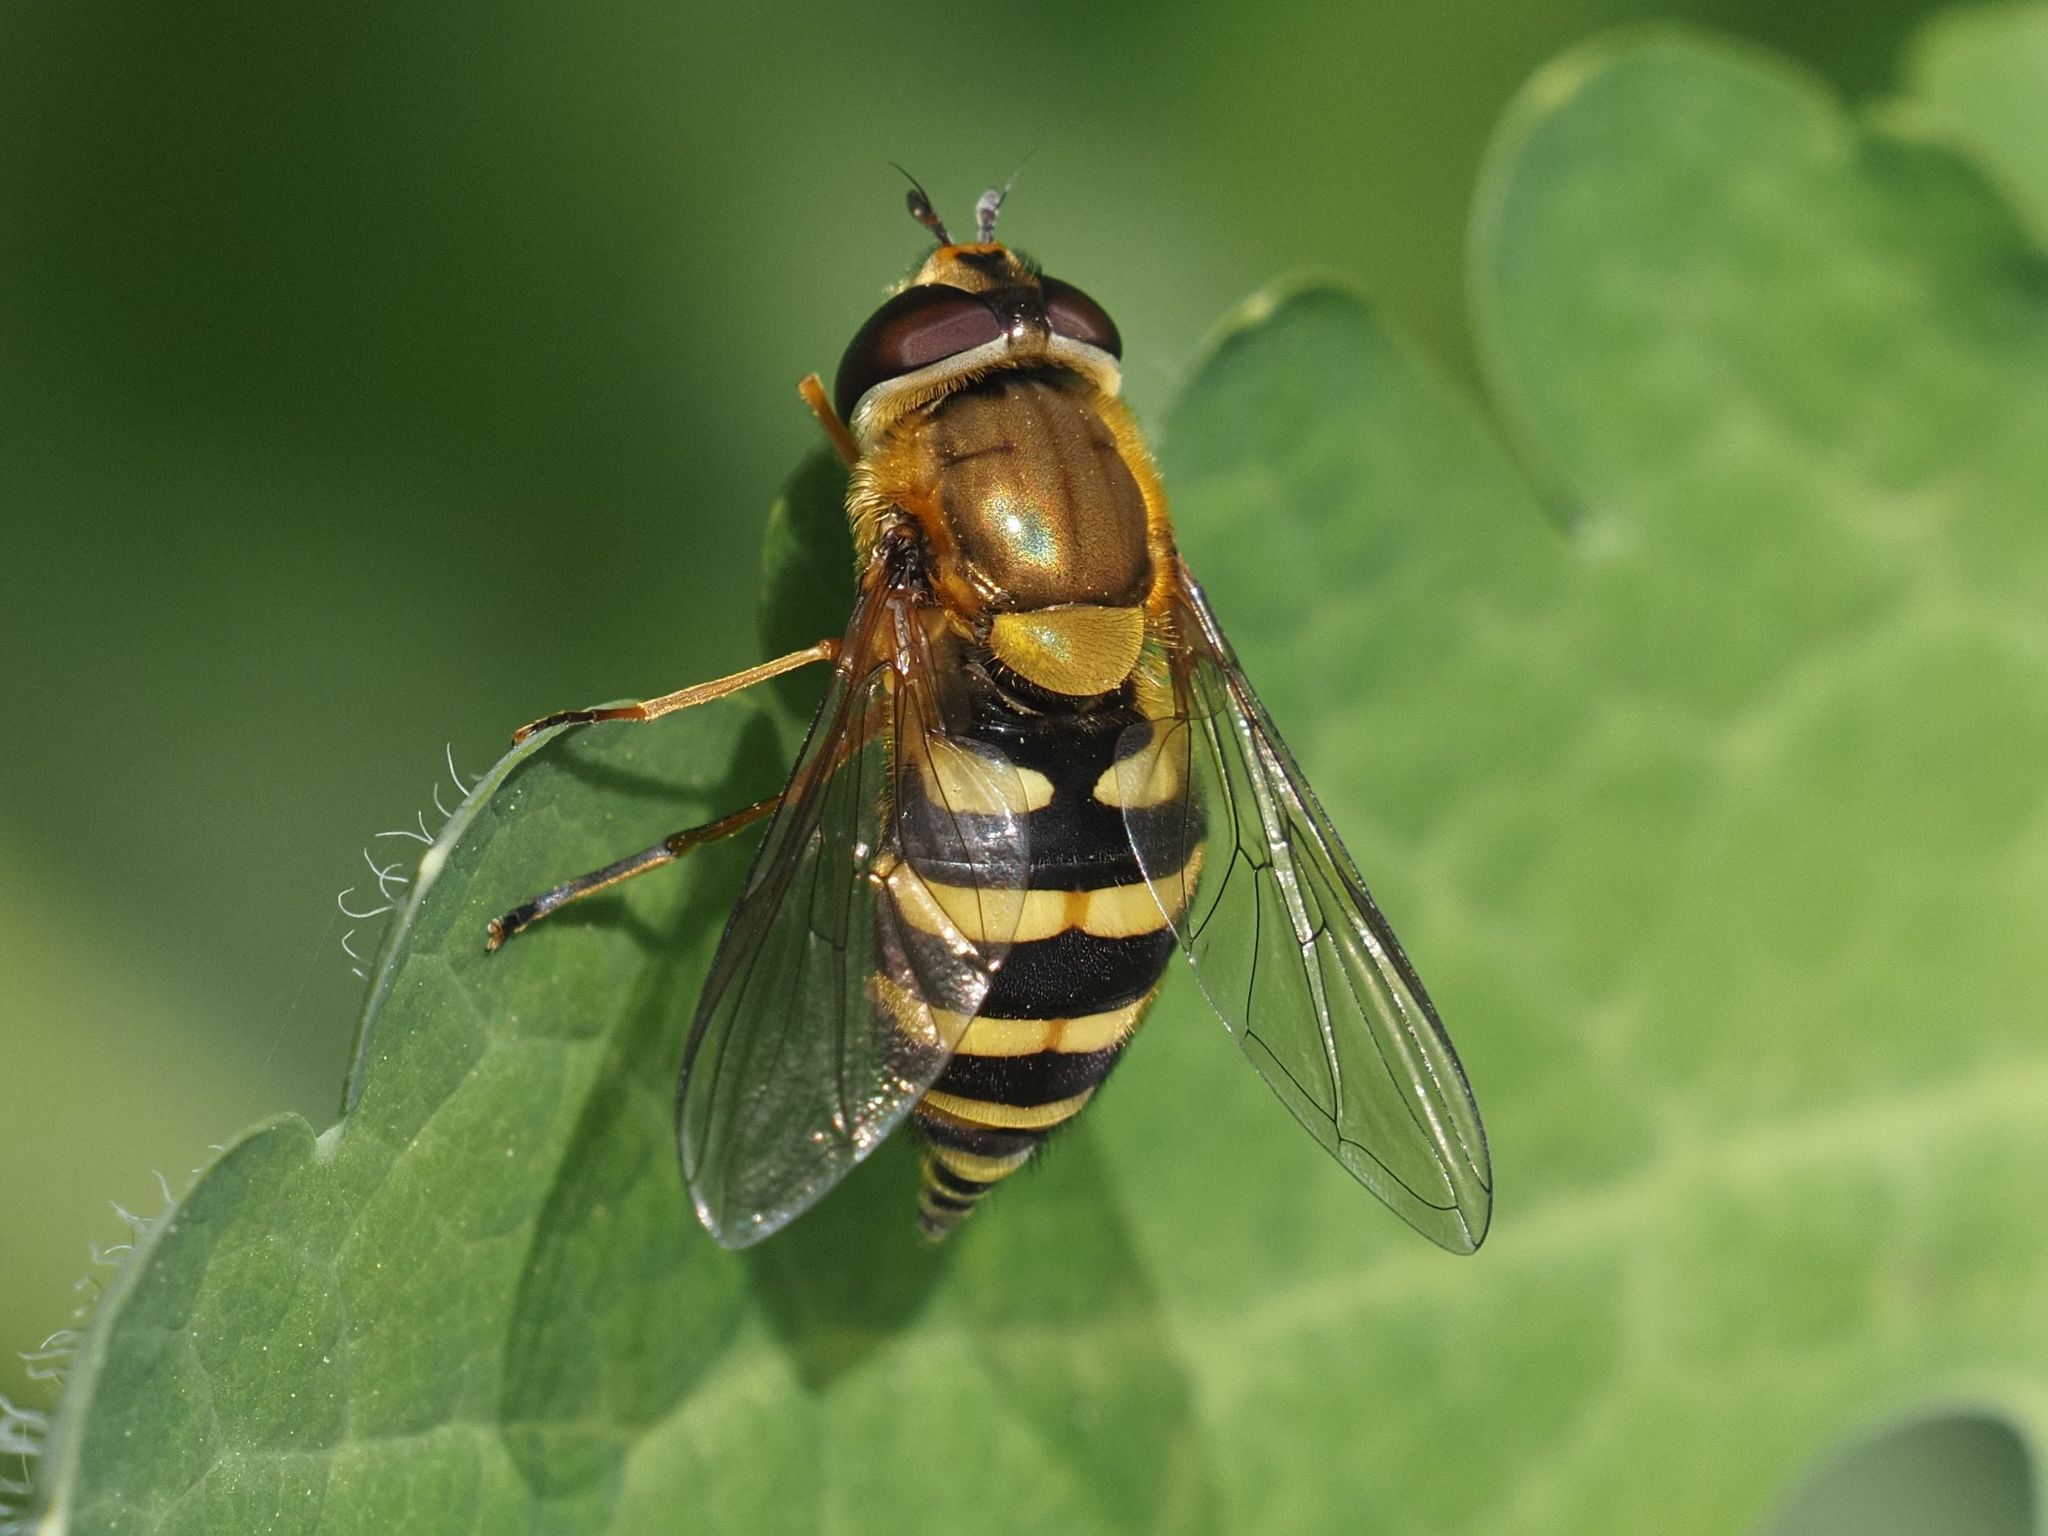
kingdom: Animalia
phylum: Arthropoda
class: Insecta
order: Diptera
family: Syrphidae
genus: Syrphus
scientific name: Syrphus
